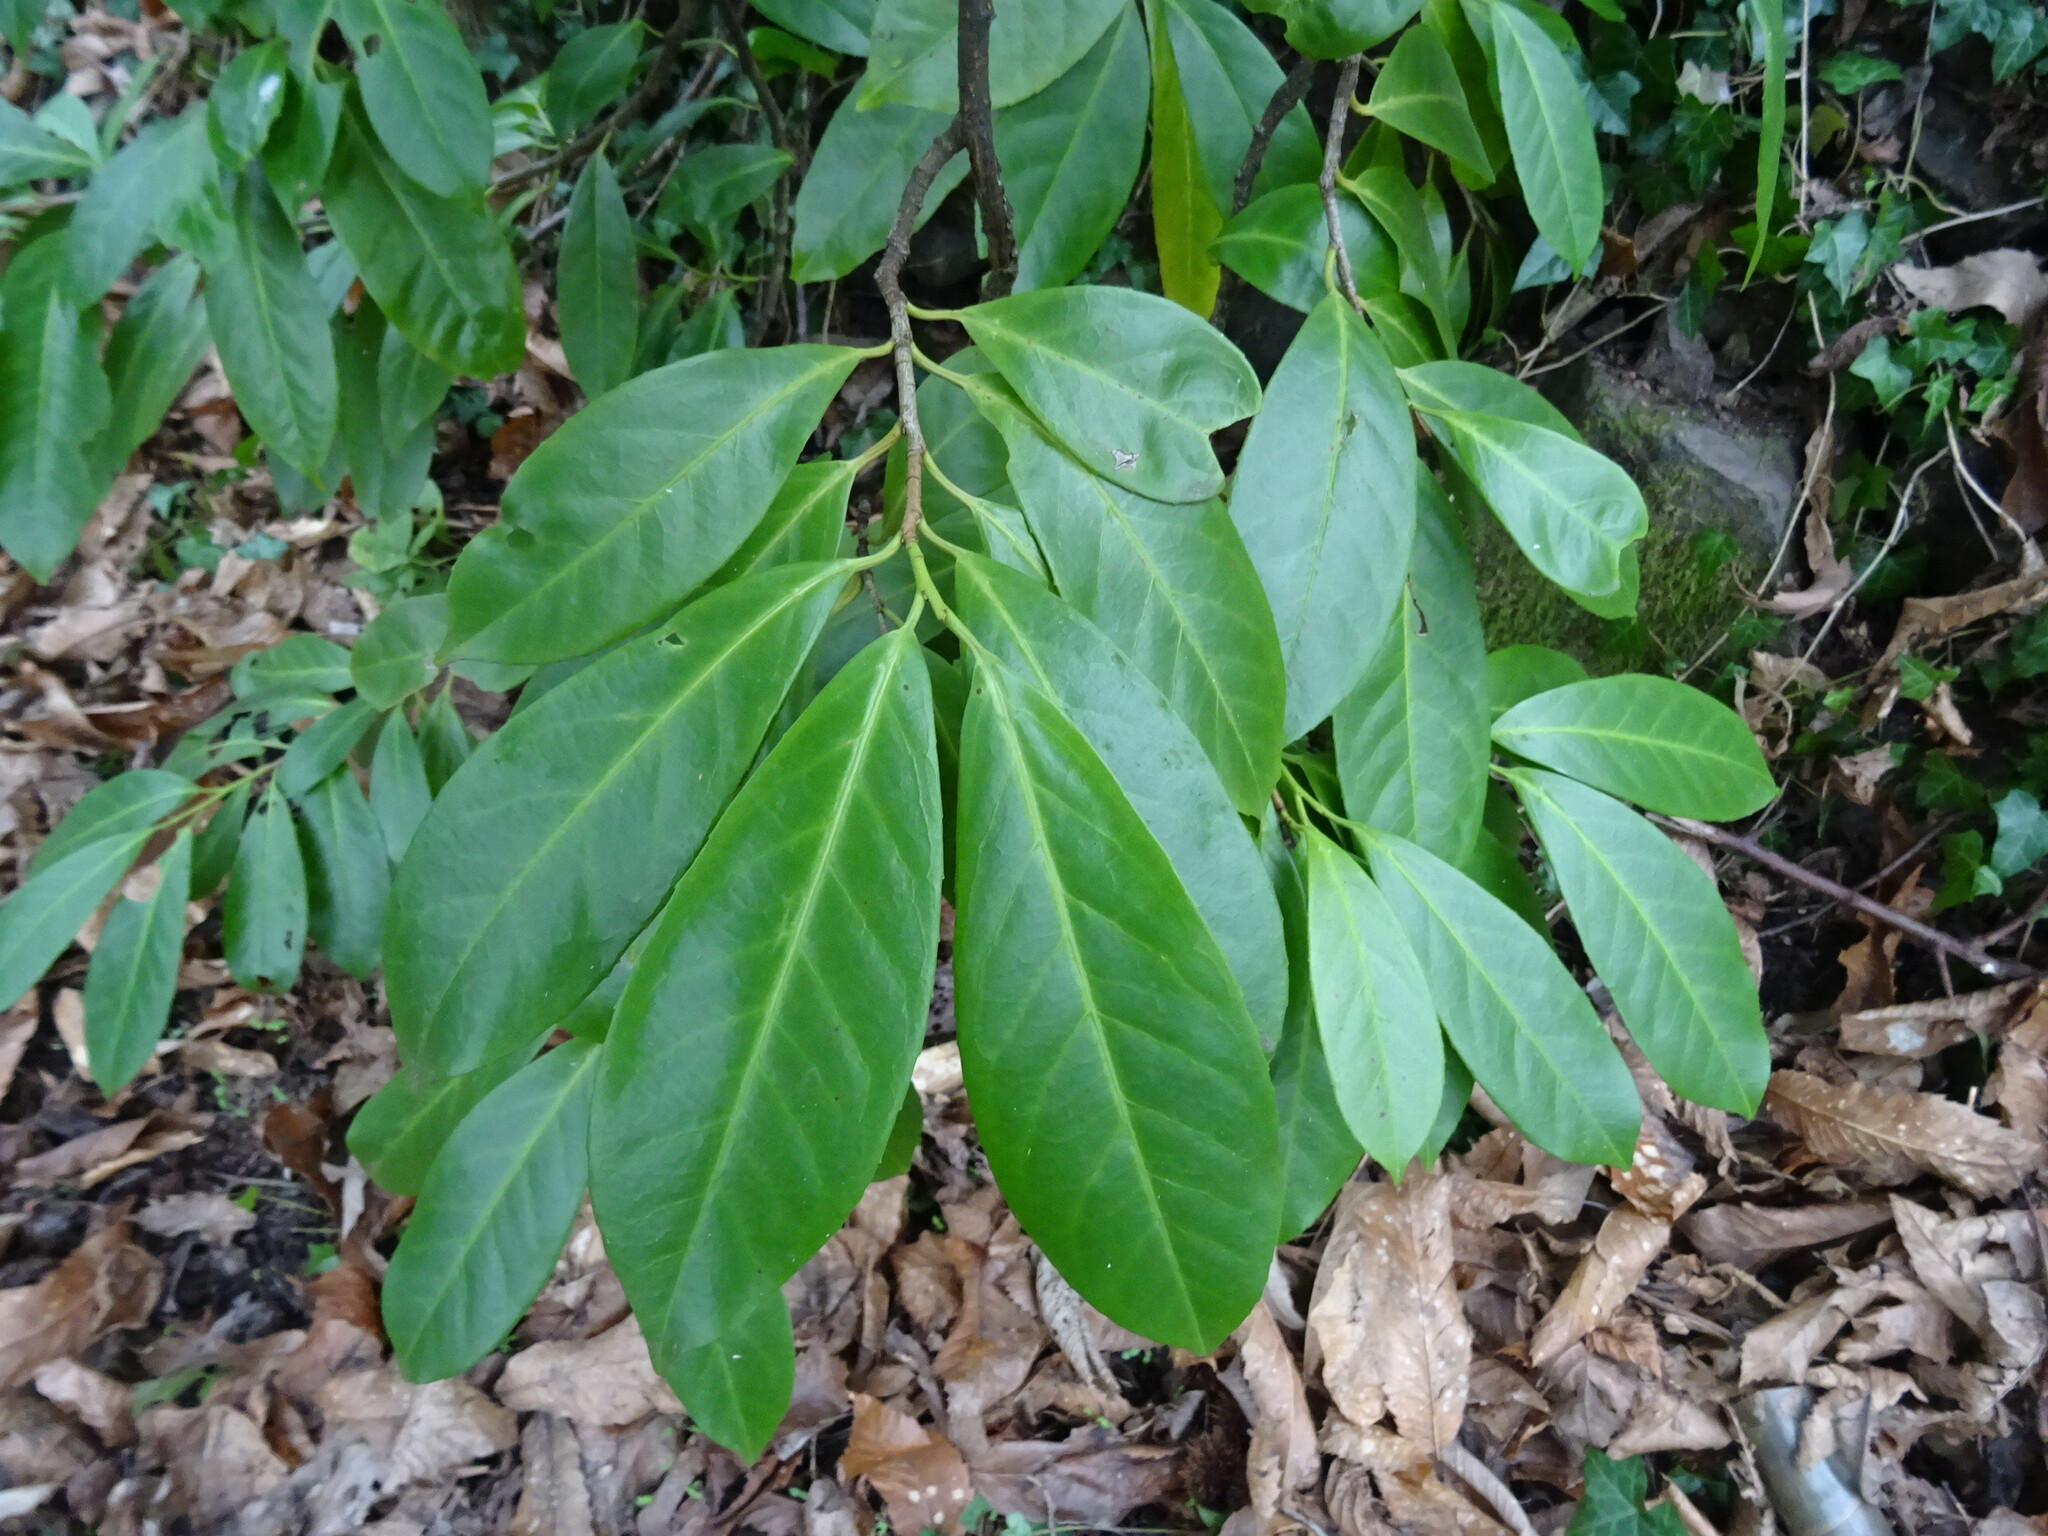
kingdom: Plantae
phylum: Tracheophyta
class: Magnoliopsida
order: Rosales
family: Rosaceae
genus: Prunus
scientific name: Prunus laurocerasus
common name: Cherry laurel
